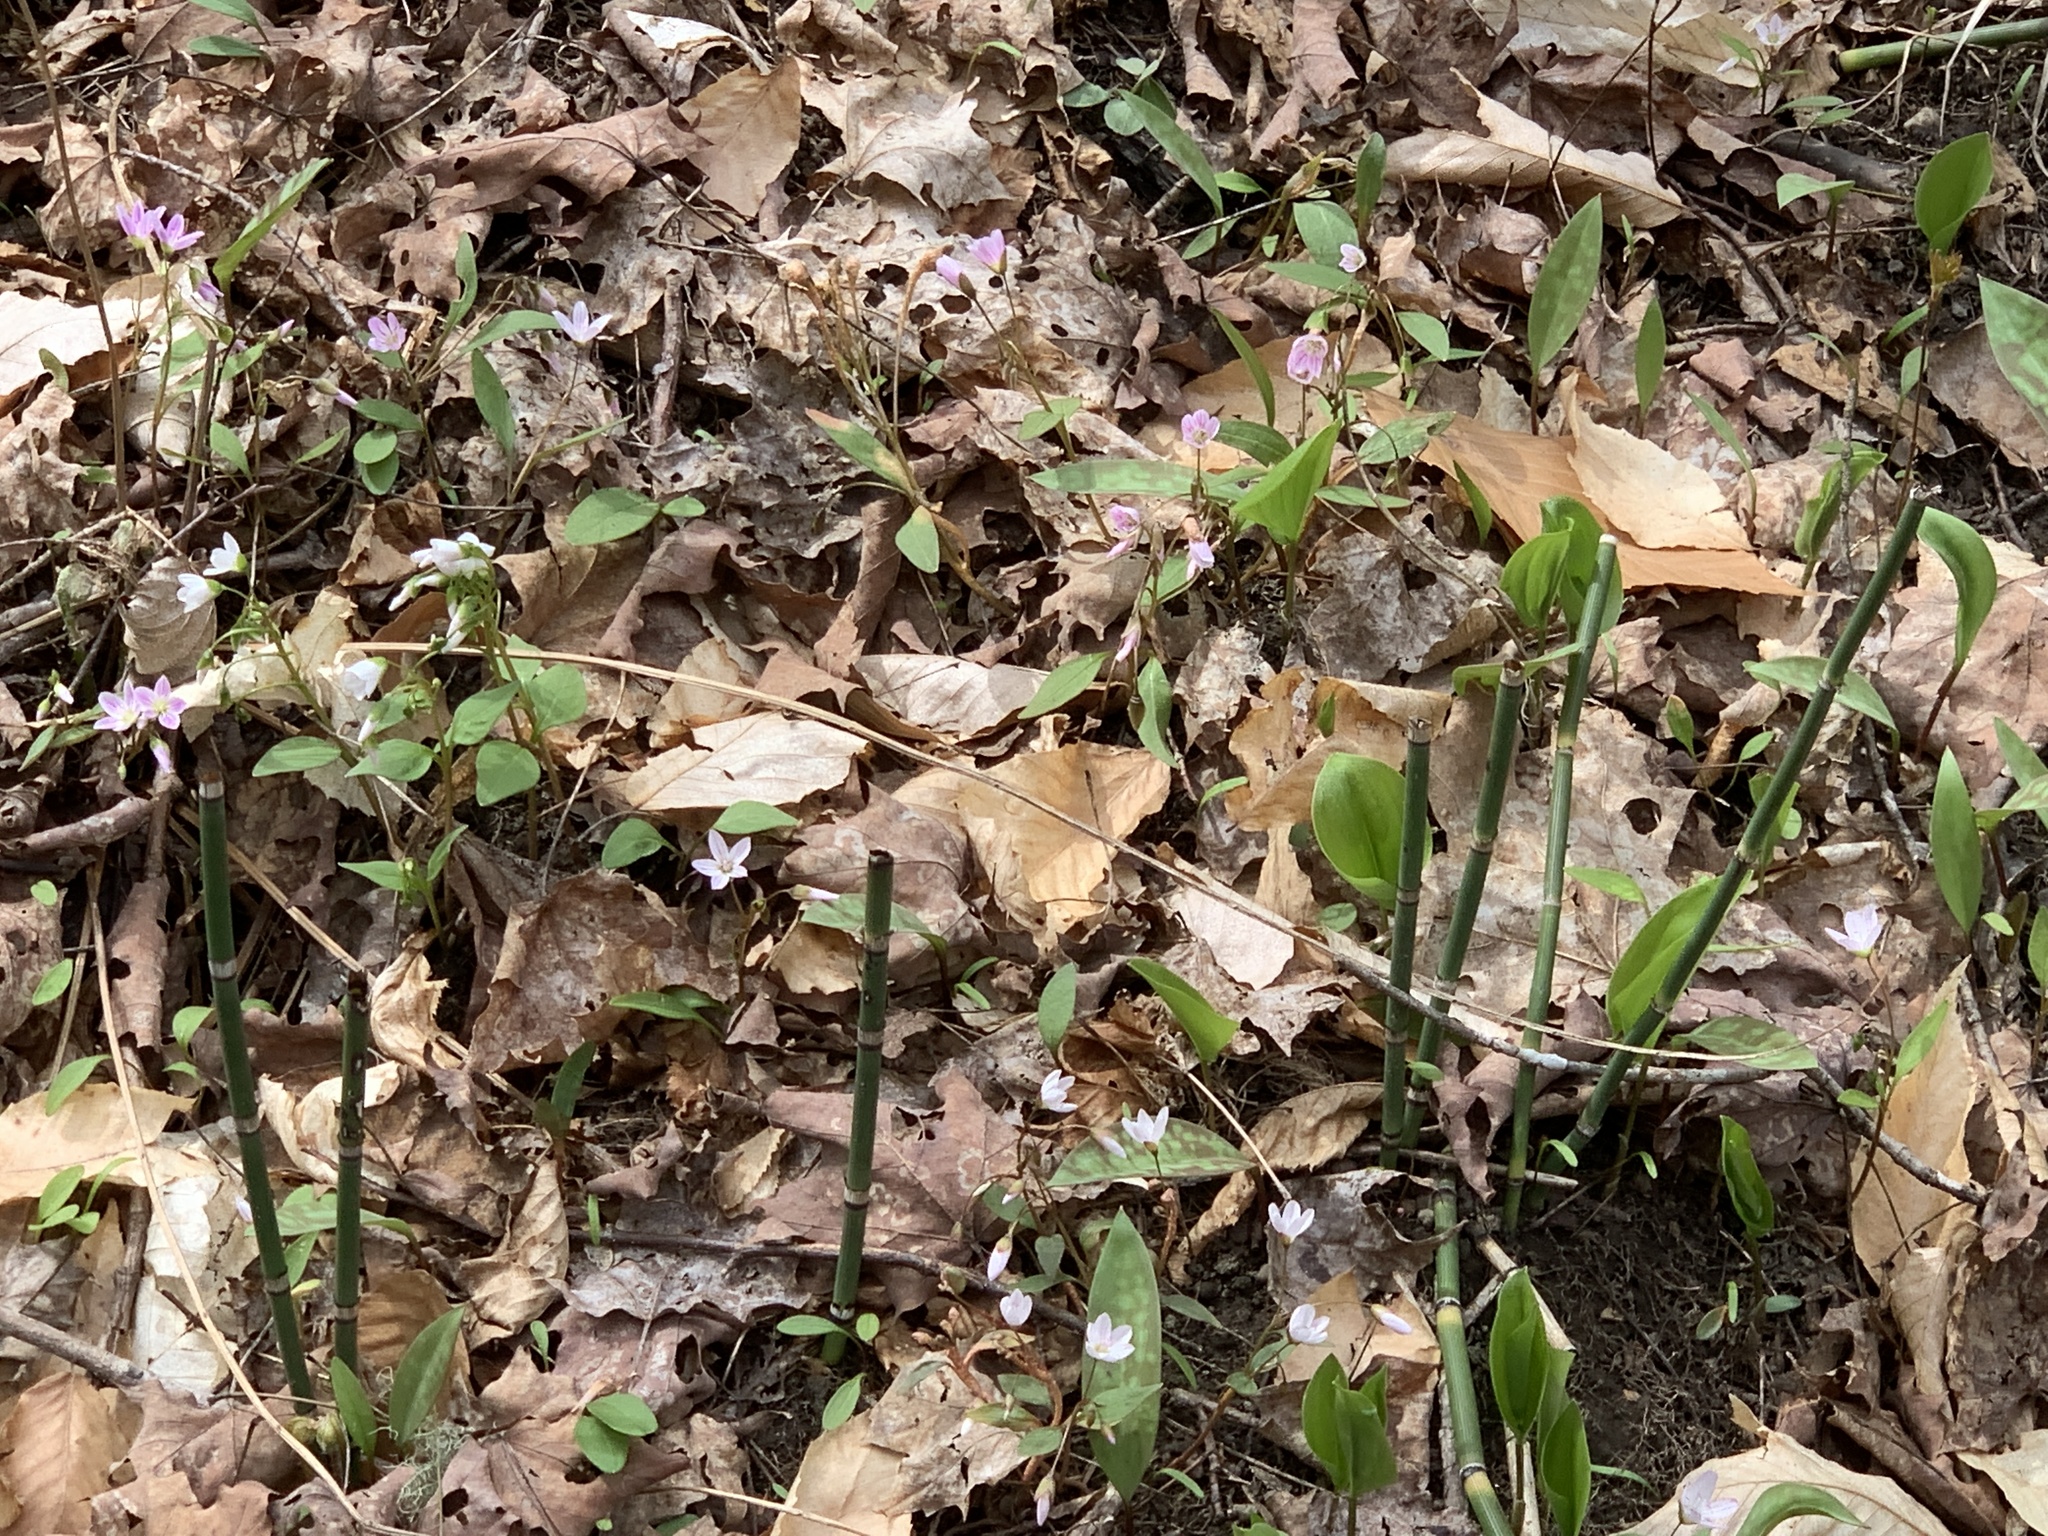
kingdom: Plantae
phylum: Tracheophyta
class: Polypodiopsida
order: Equisetales
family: Equisetaceae
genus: Equisetum
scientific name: Equisetum hyemale
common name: Rough horsetail
